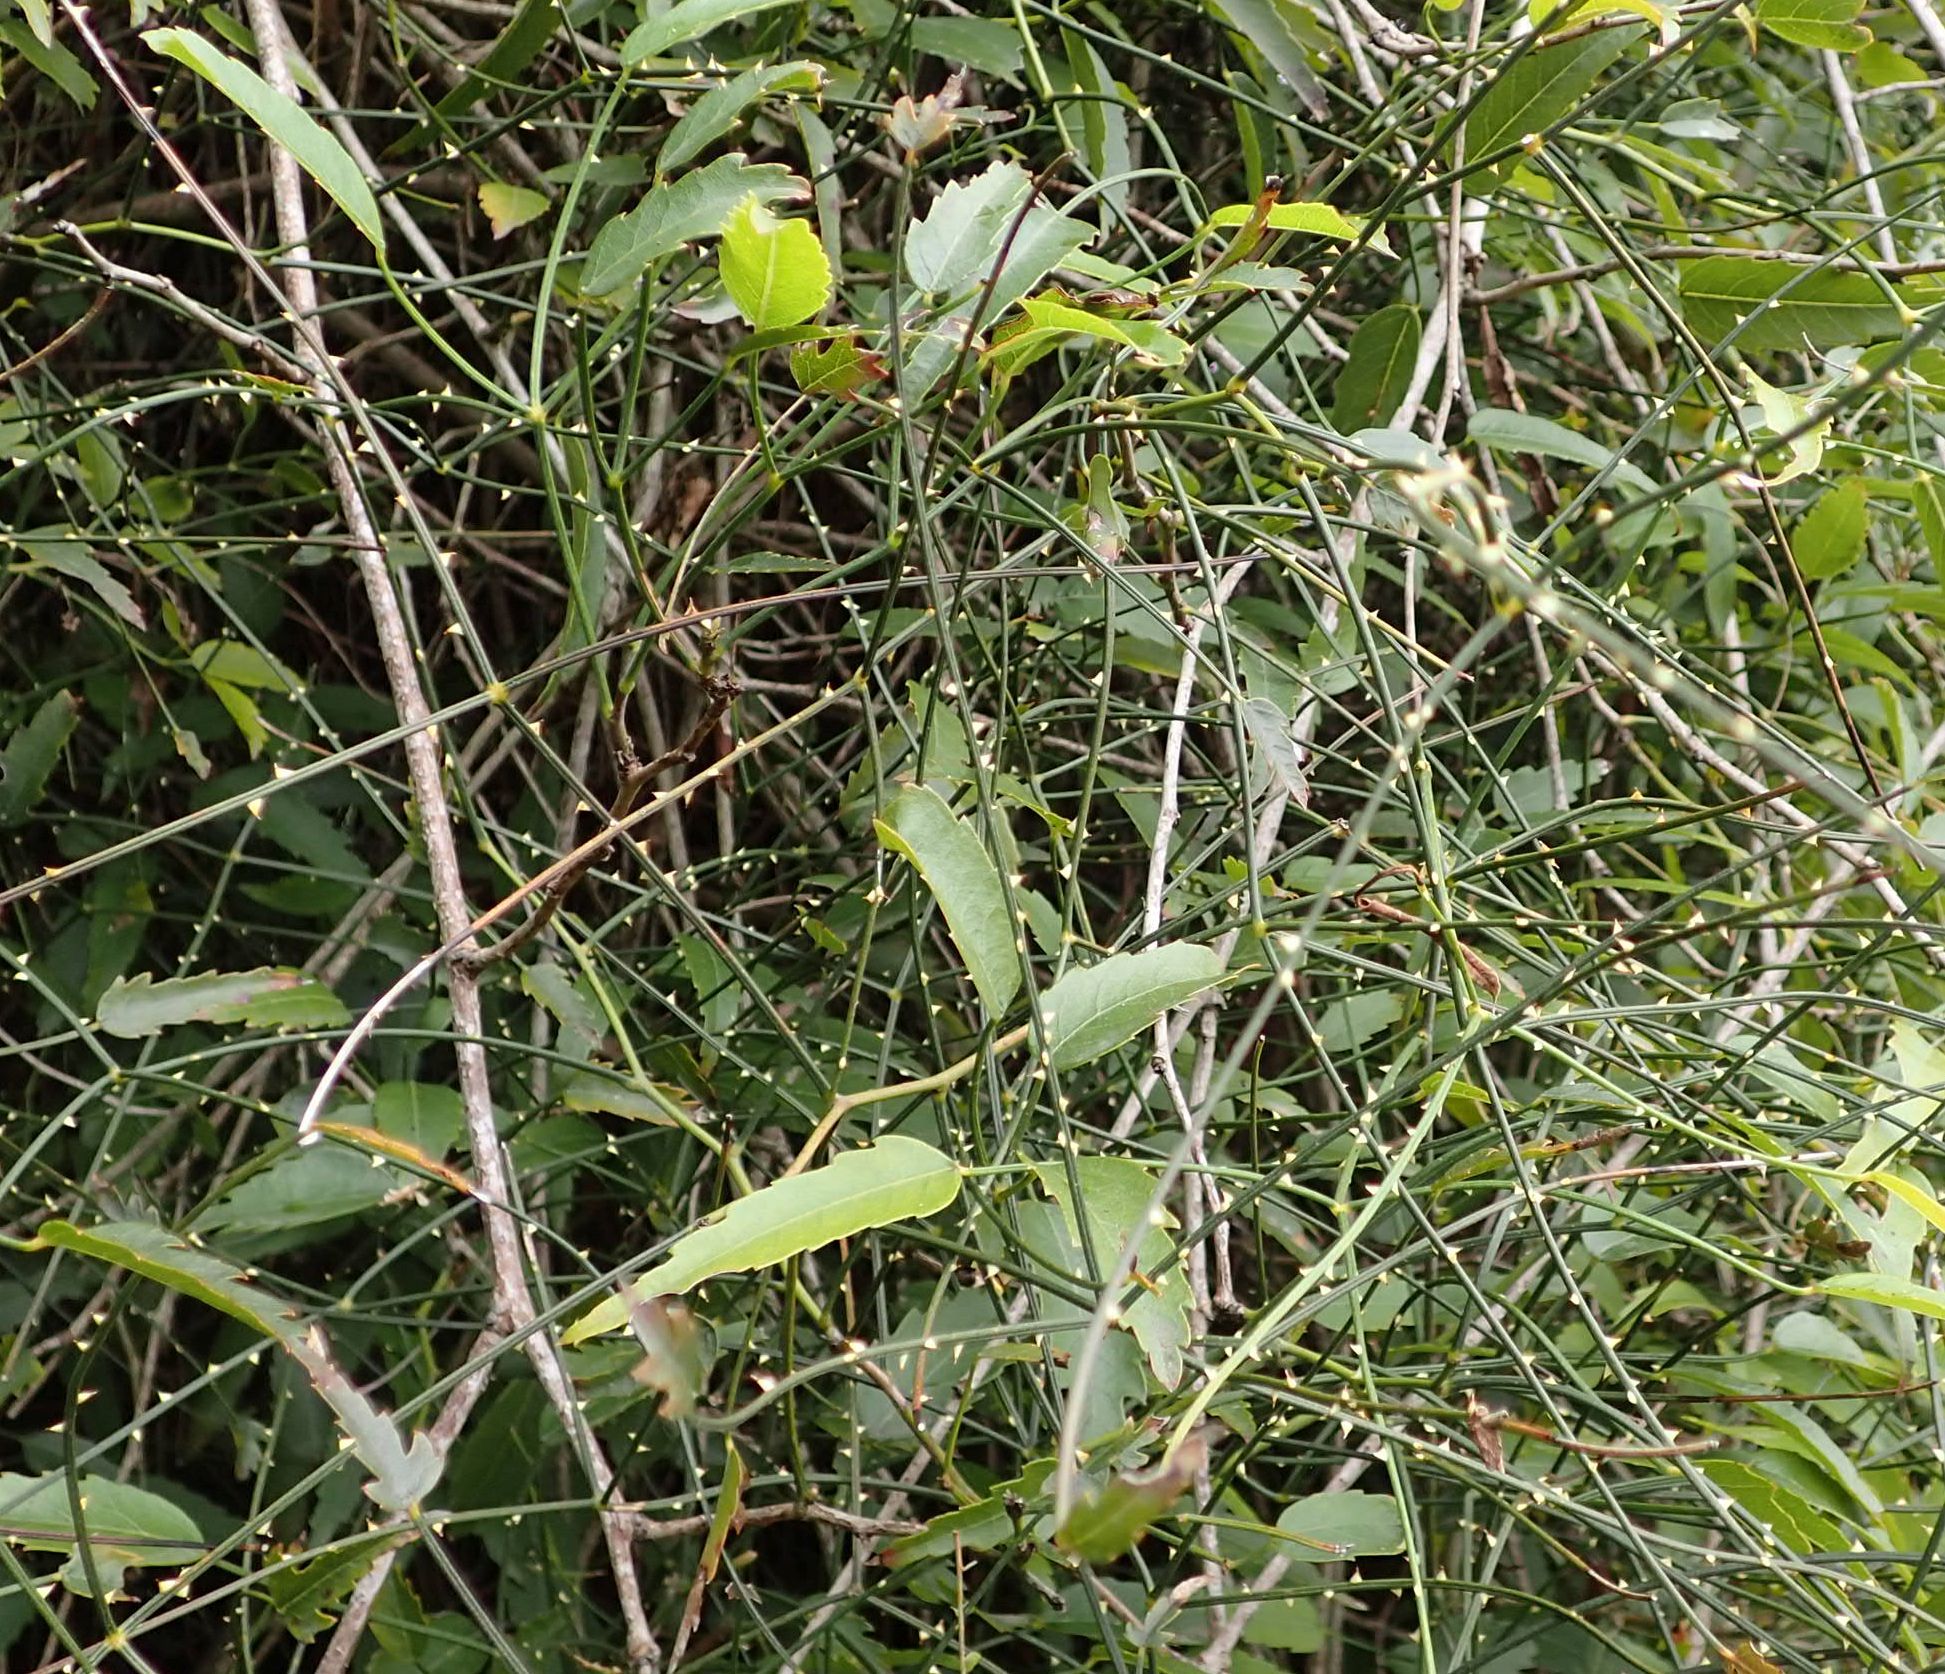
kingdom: Plantae
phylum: Tracheophyta
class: Magnoliopsida
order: Rosales
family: Rosaceae
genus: Rubus
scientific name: Rubus squarrosus
